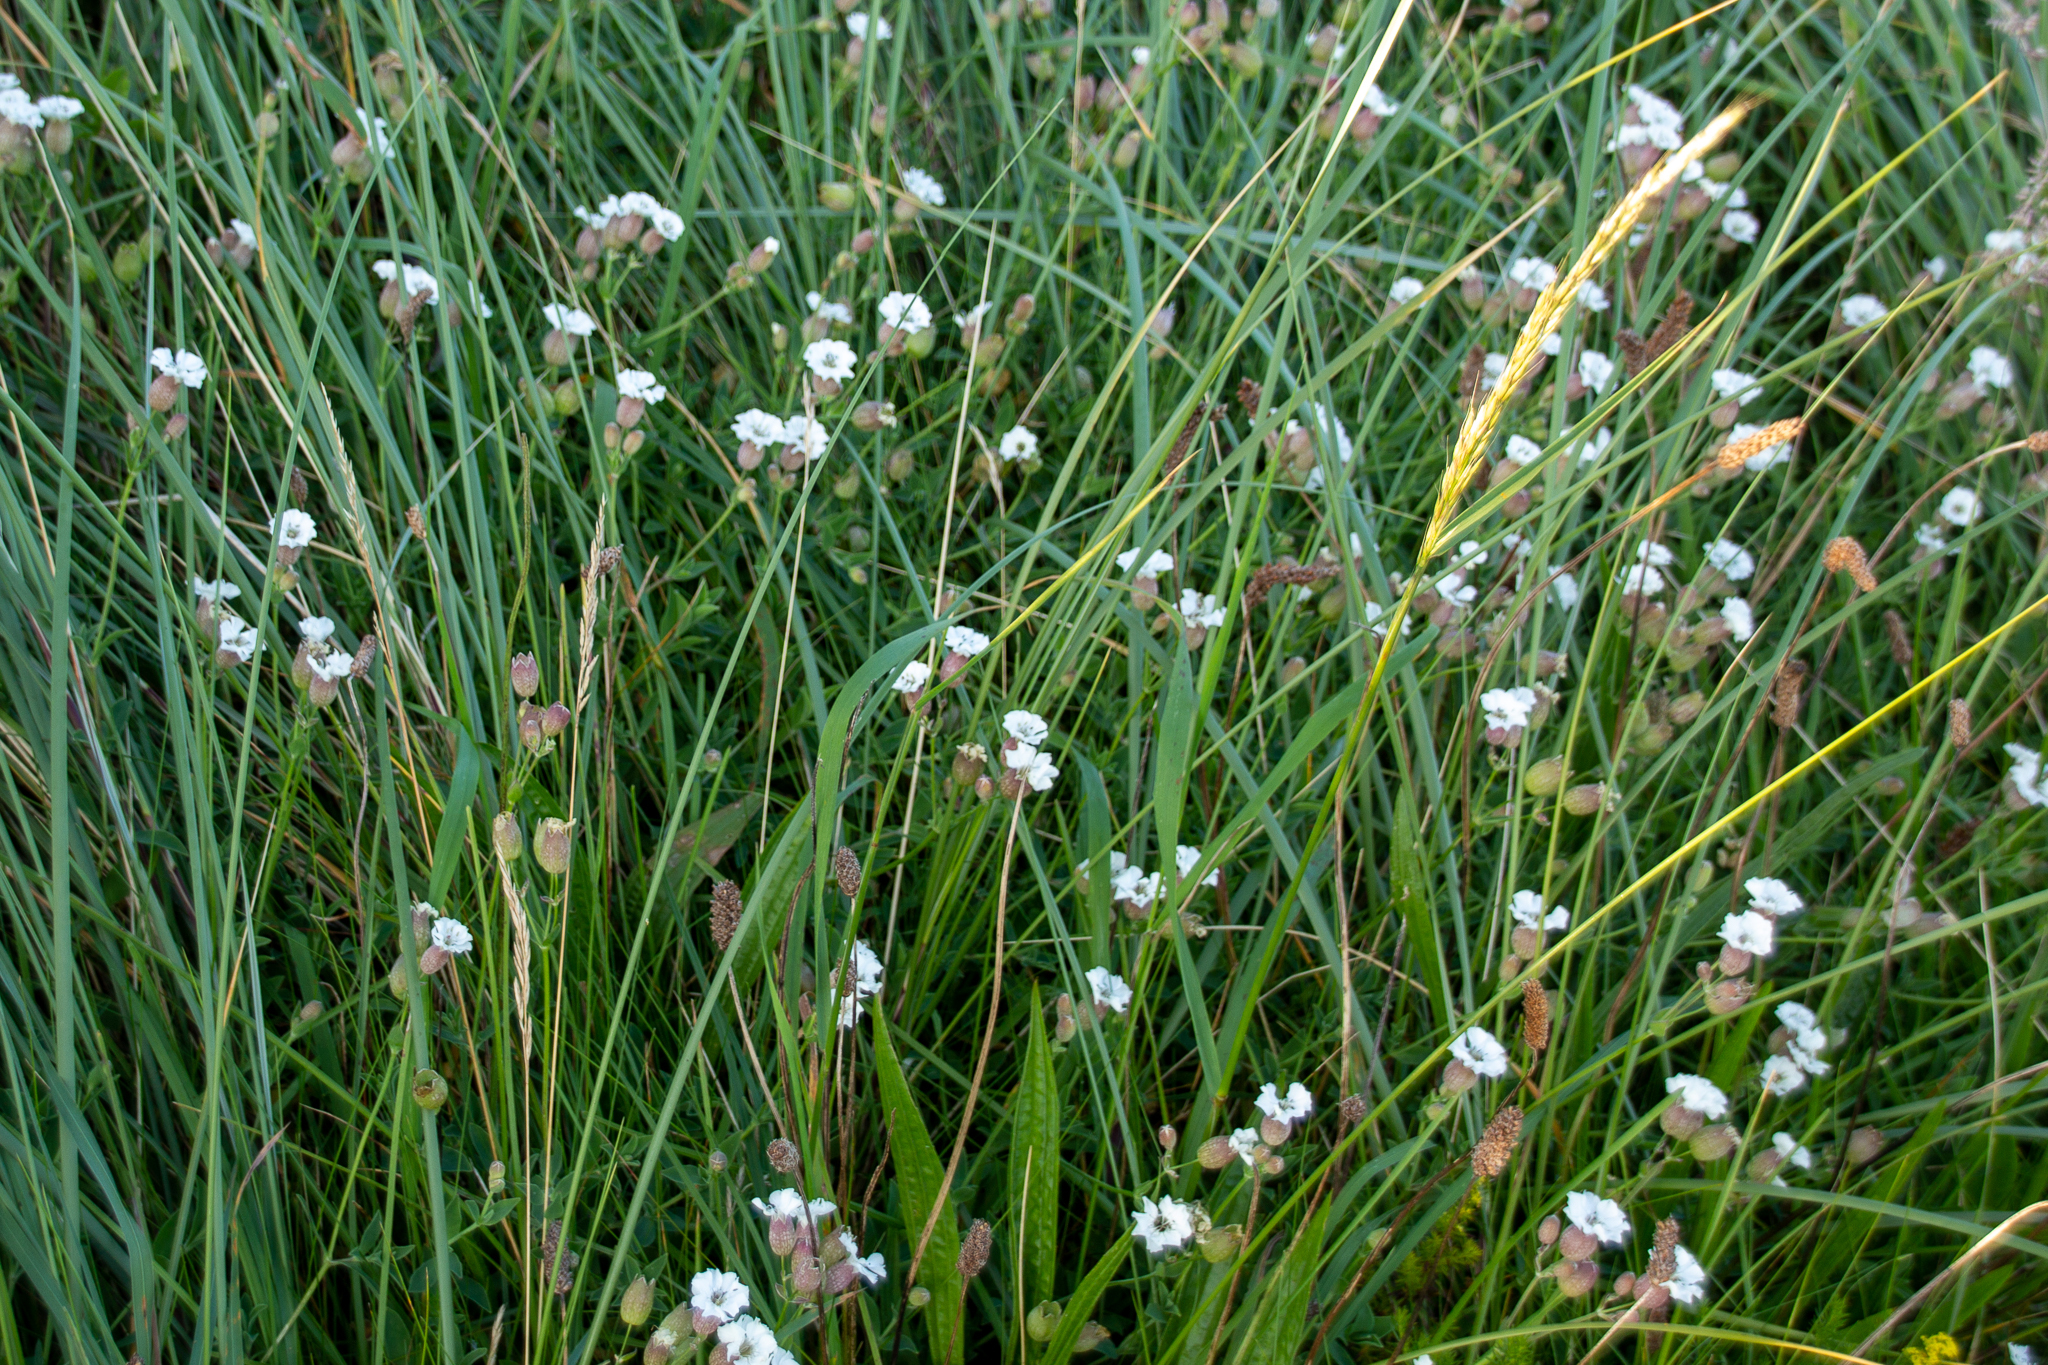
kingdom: Plantae
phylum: Tracheophyta
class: Magnoliopsida
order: Caryophyllales
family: Caryophyllaceae
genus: Silene
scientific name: Silene uniflora
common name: Sea campion
